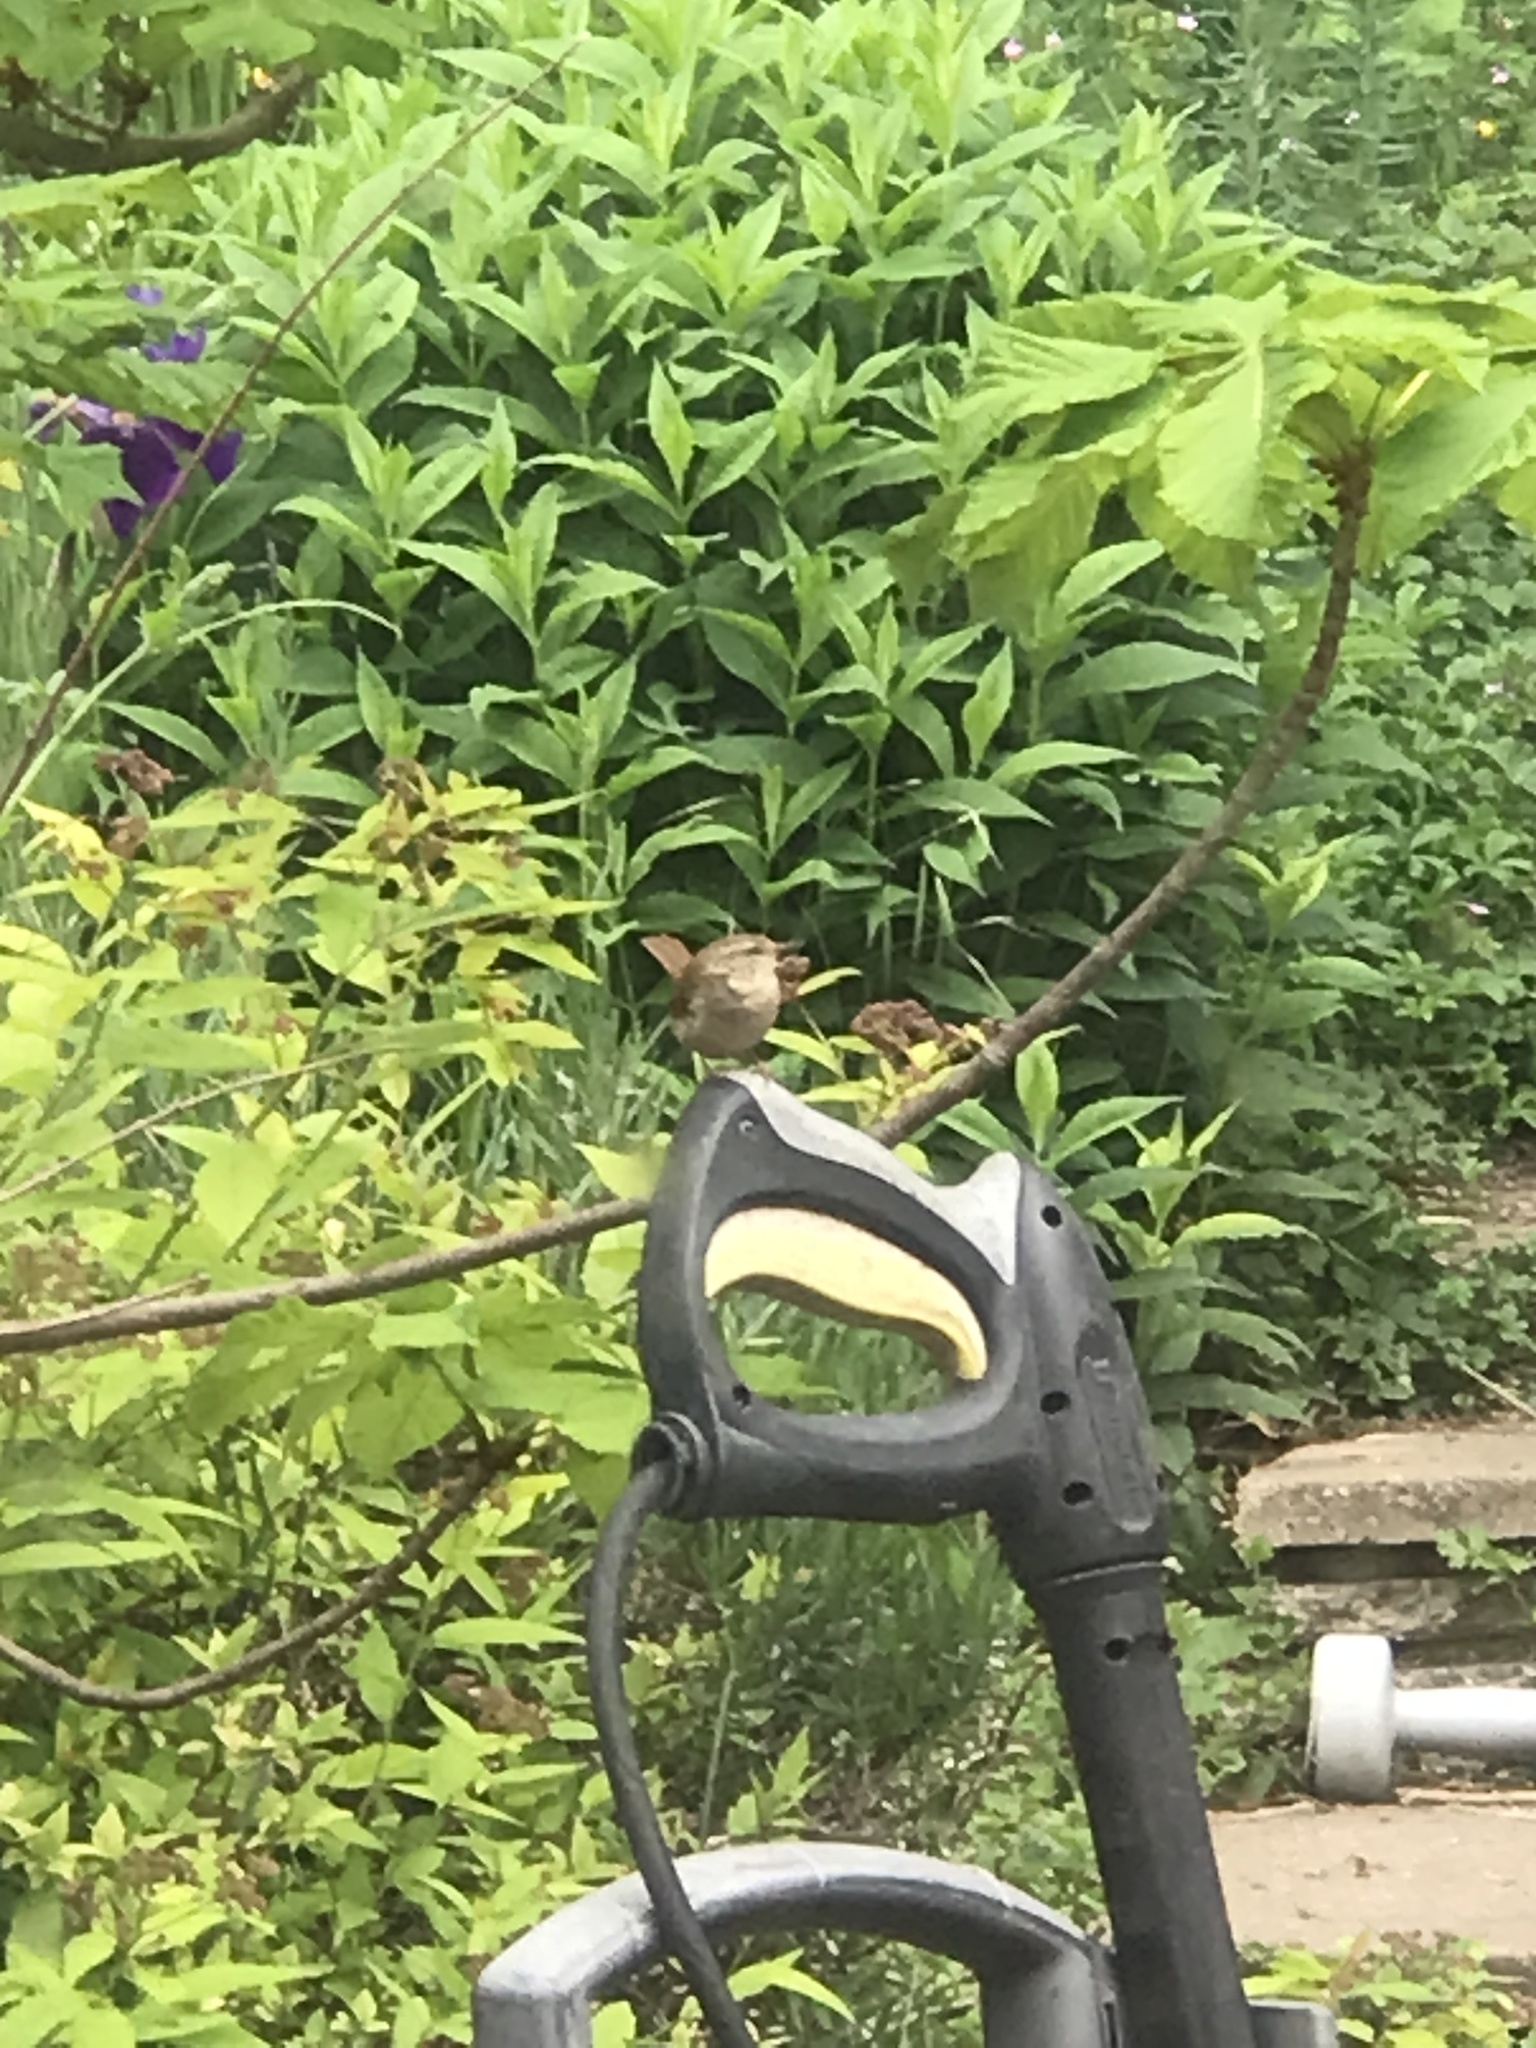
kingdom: Animalia
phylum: Chordata
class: Aves
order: Passeriformes
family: Troglodytidae
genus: Troglodytes
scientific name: Troglodytes troglodytes
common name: Eurasian wren
